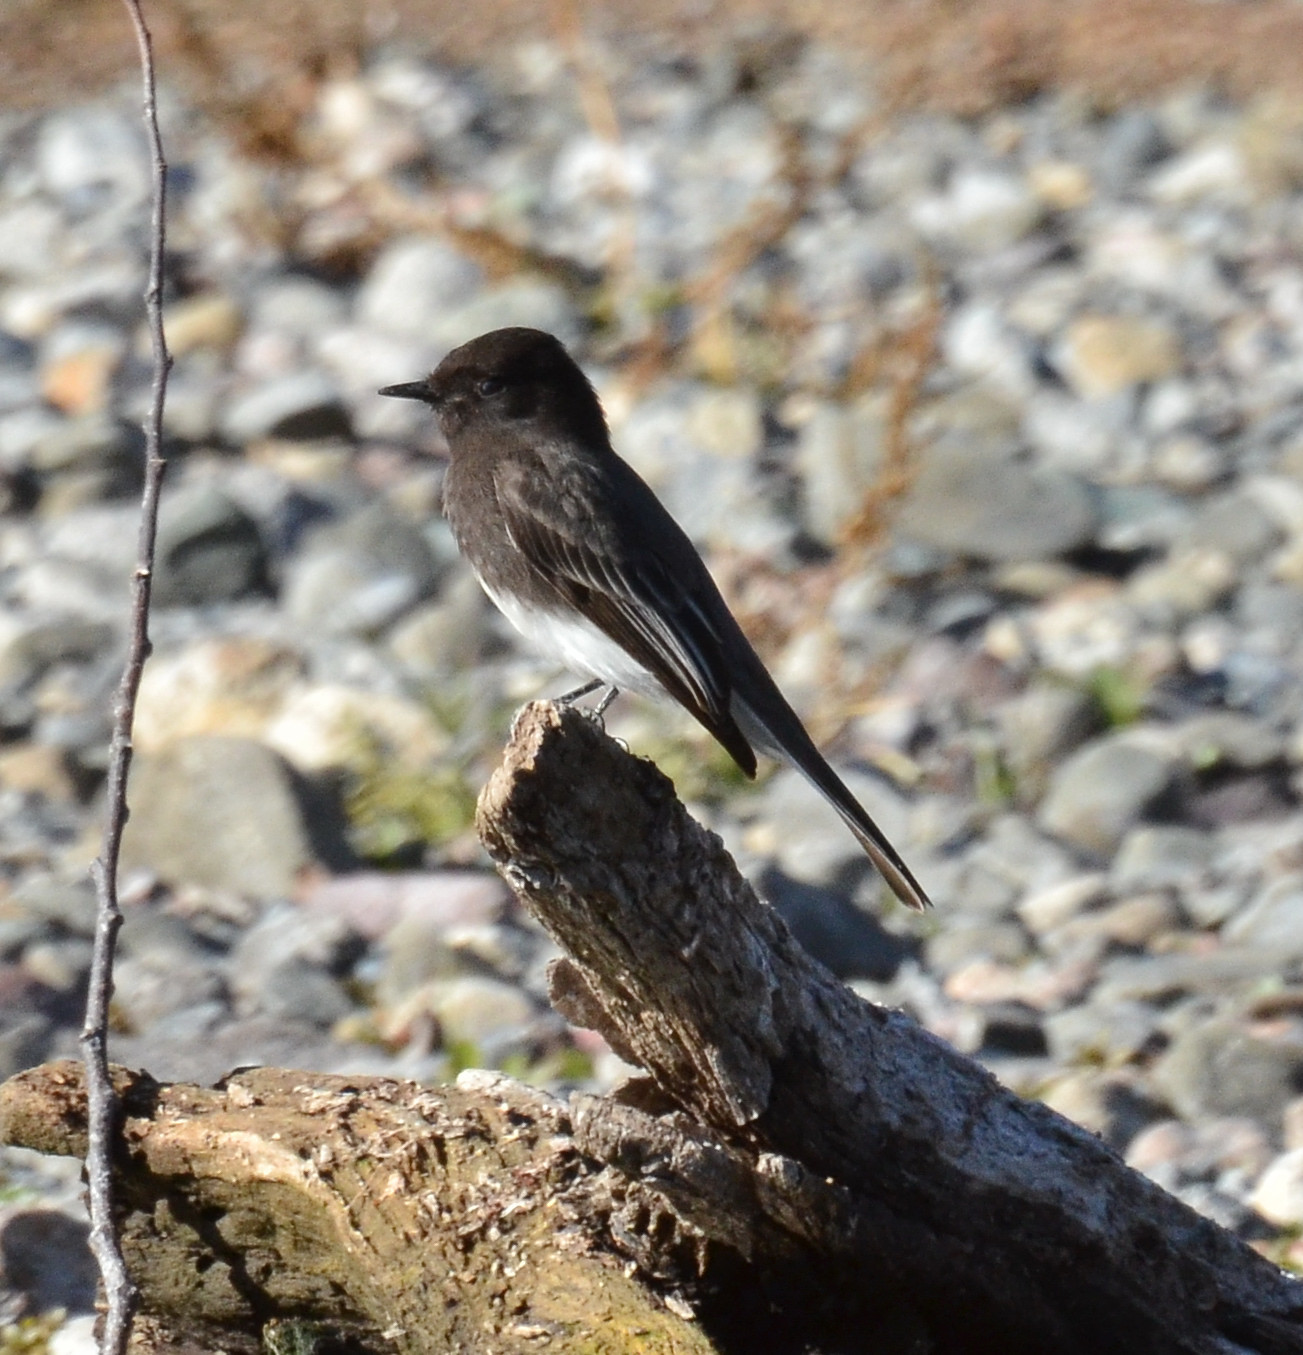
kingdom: Animalia
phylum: Chordata
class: Aves
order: Passeriformes
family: Tyrannidae
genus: Sayornis
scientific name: Sayornis nigricans
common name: Black phoebe
